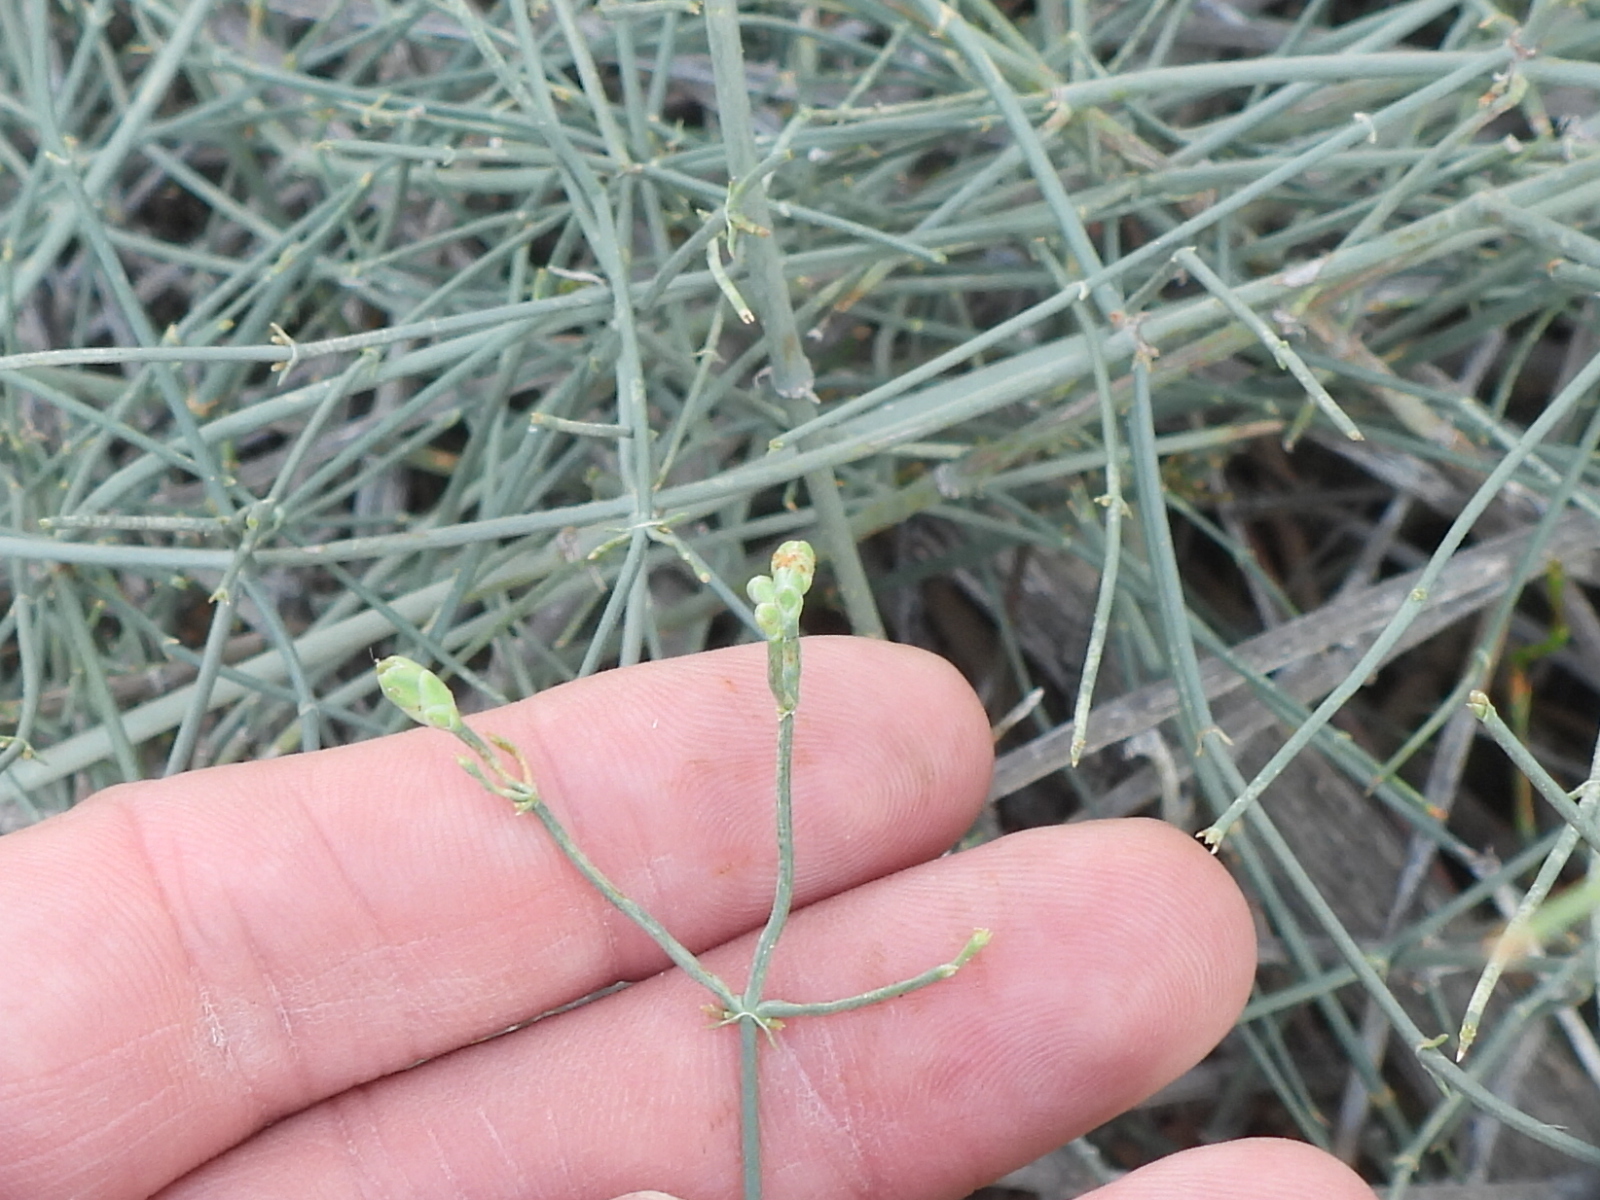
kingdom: Plantae
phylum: Tracheophyta
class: Gnetopsida
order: Ephedrales
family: Ephedraceae
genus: Ephedra
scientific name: Ephedra ciliata
